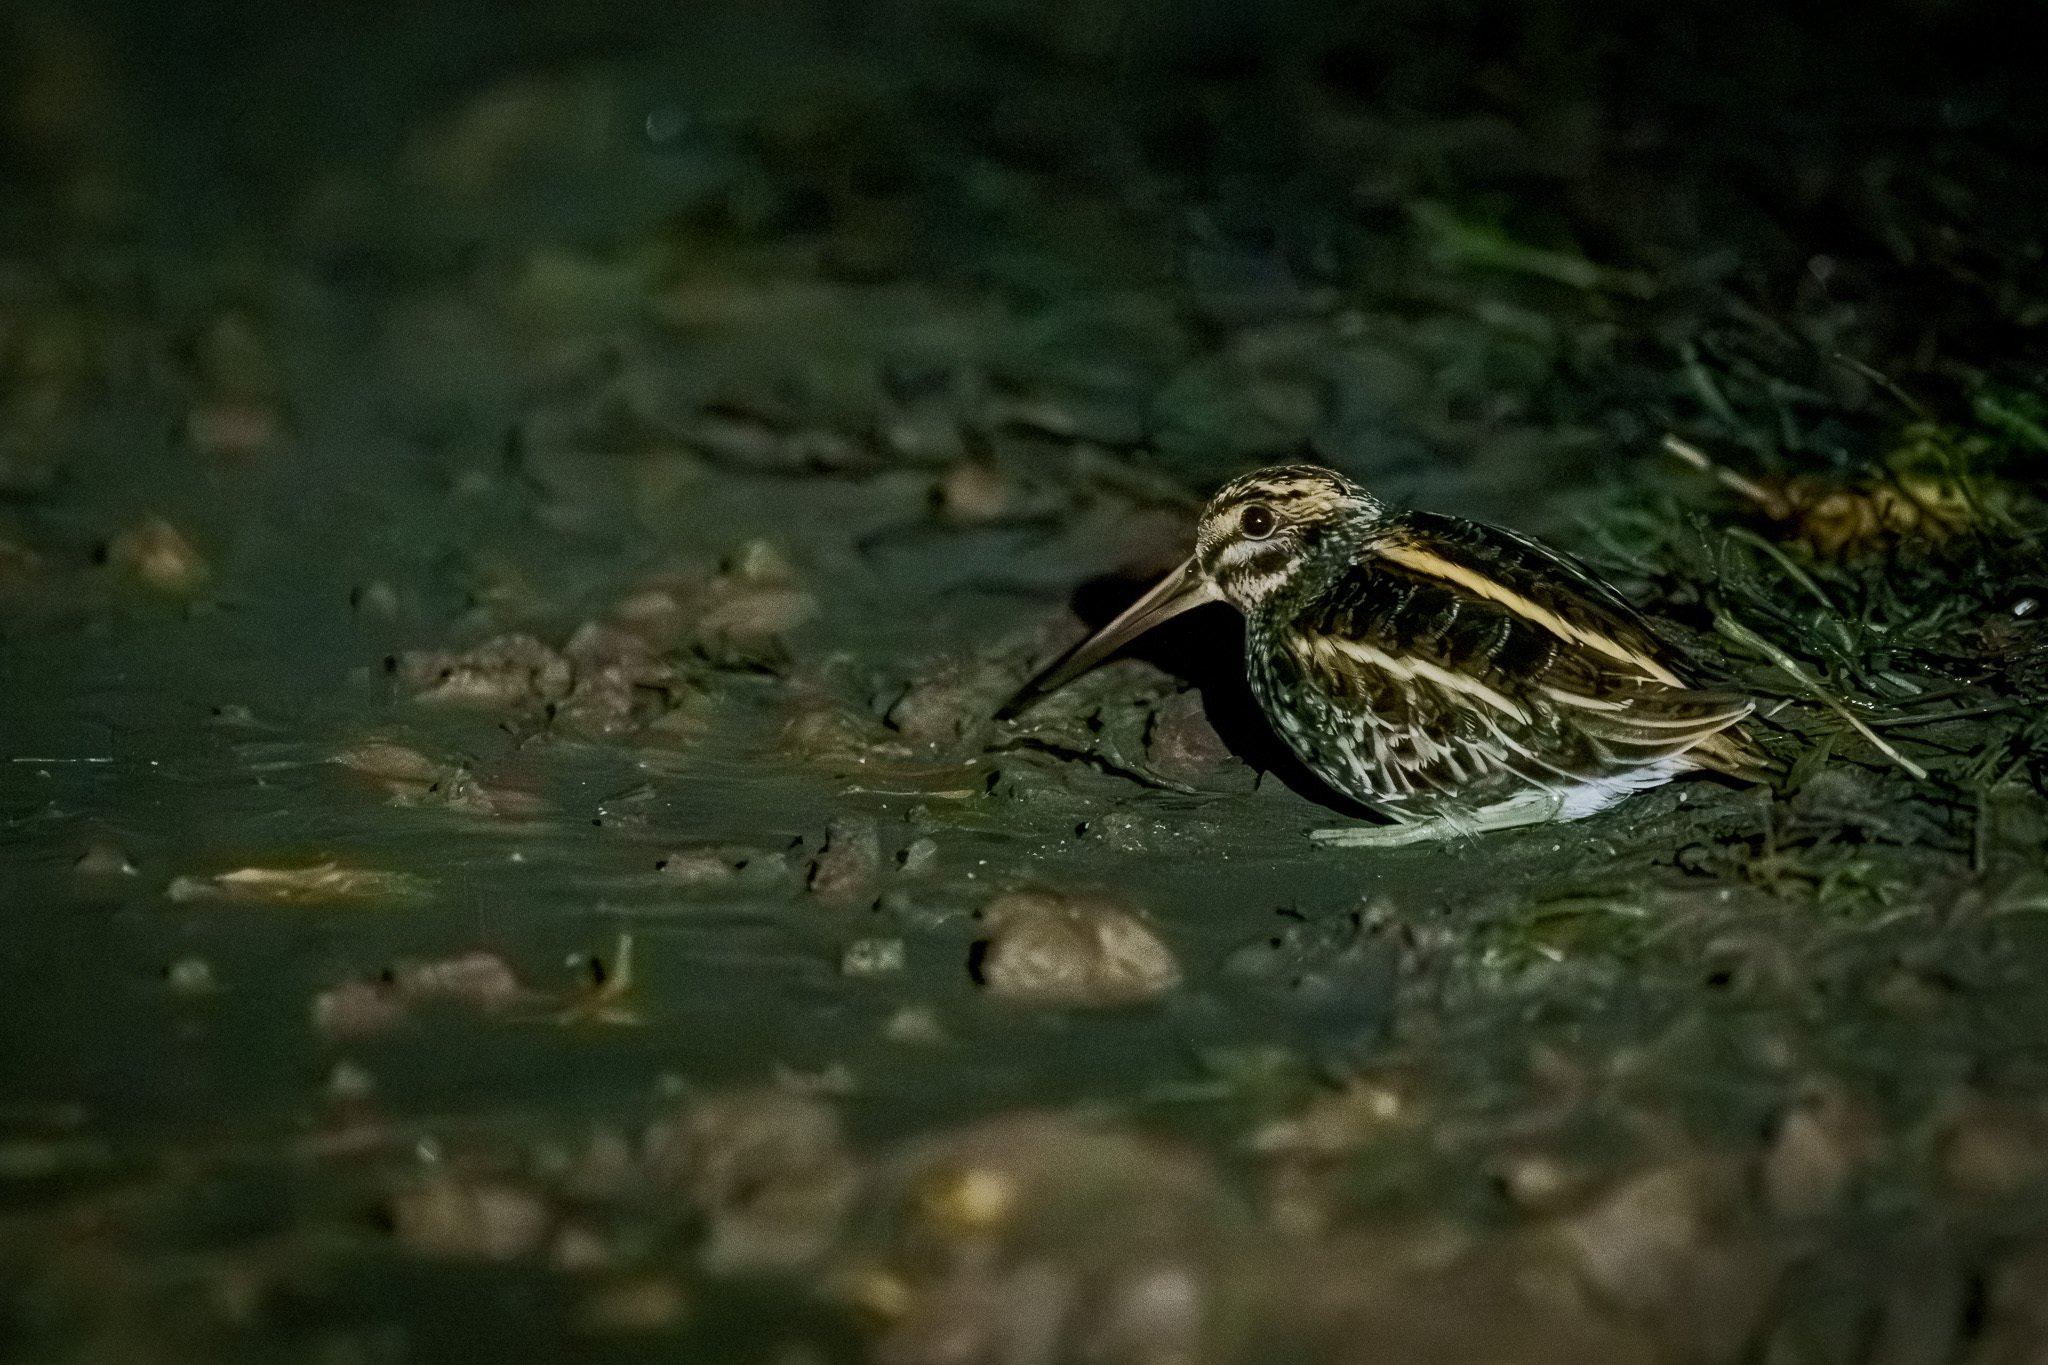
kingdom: Animalia
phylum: Chordata
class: Aves
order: Charadriiformes
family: Scolopacidae
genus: Lymnocryptes
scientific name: Lymnocryptes minimus
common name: Jack snipe
